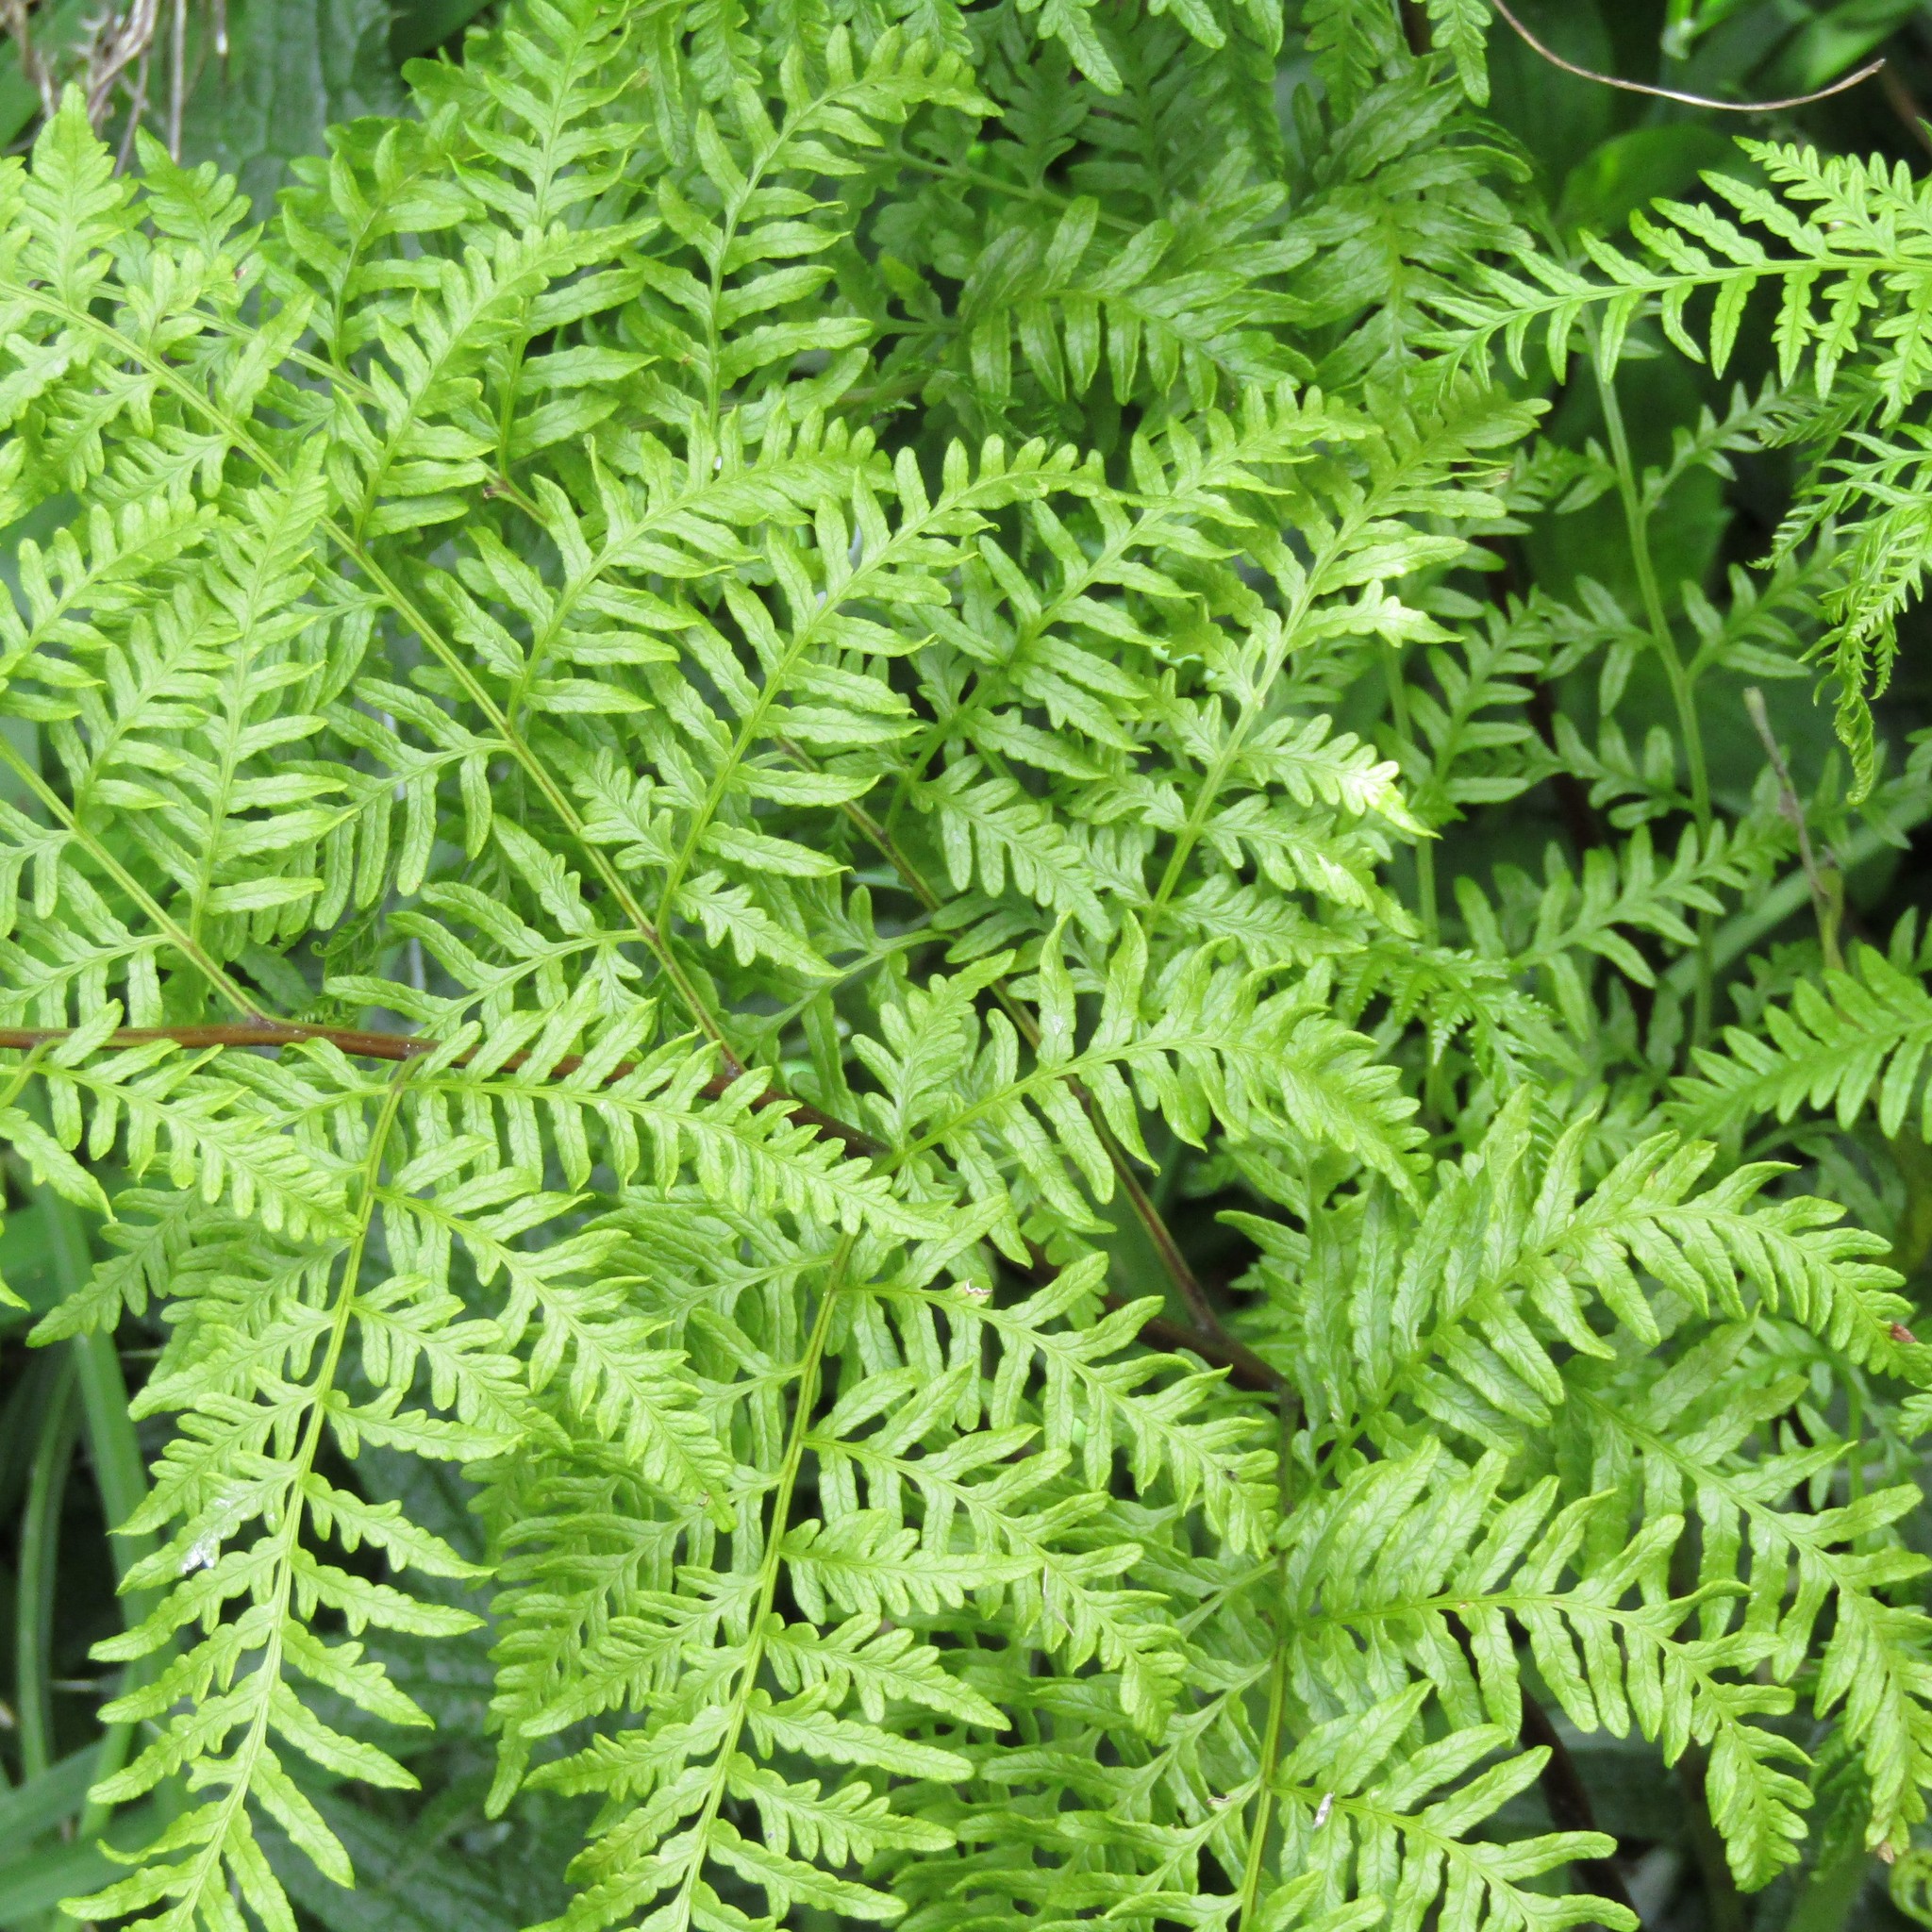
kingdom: Plantae
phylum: Tracheophyta
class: Polypodiopsida
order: Polypodiales
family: Pteridaceae
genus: Pteris
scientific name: Pteris tremula
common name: Australian brake
